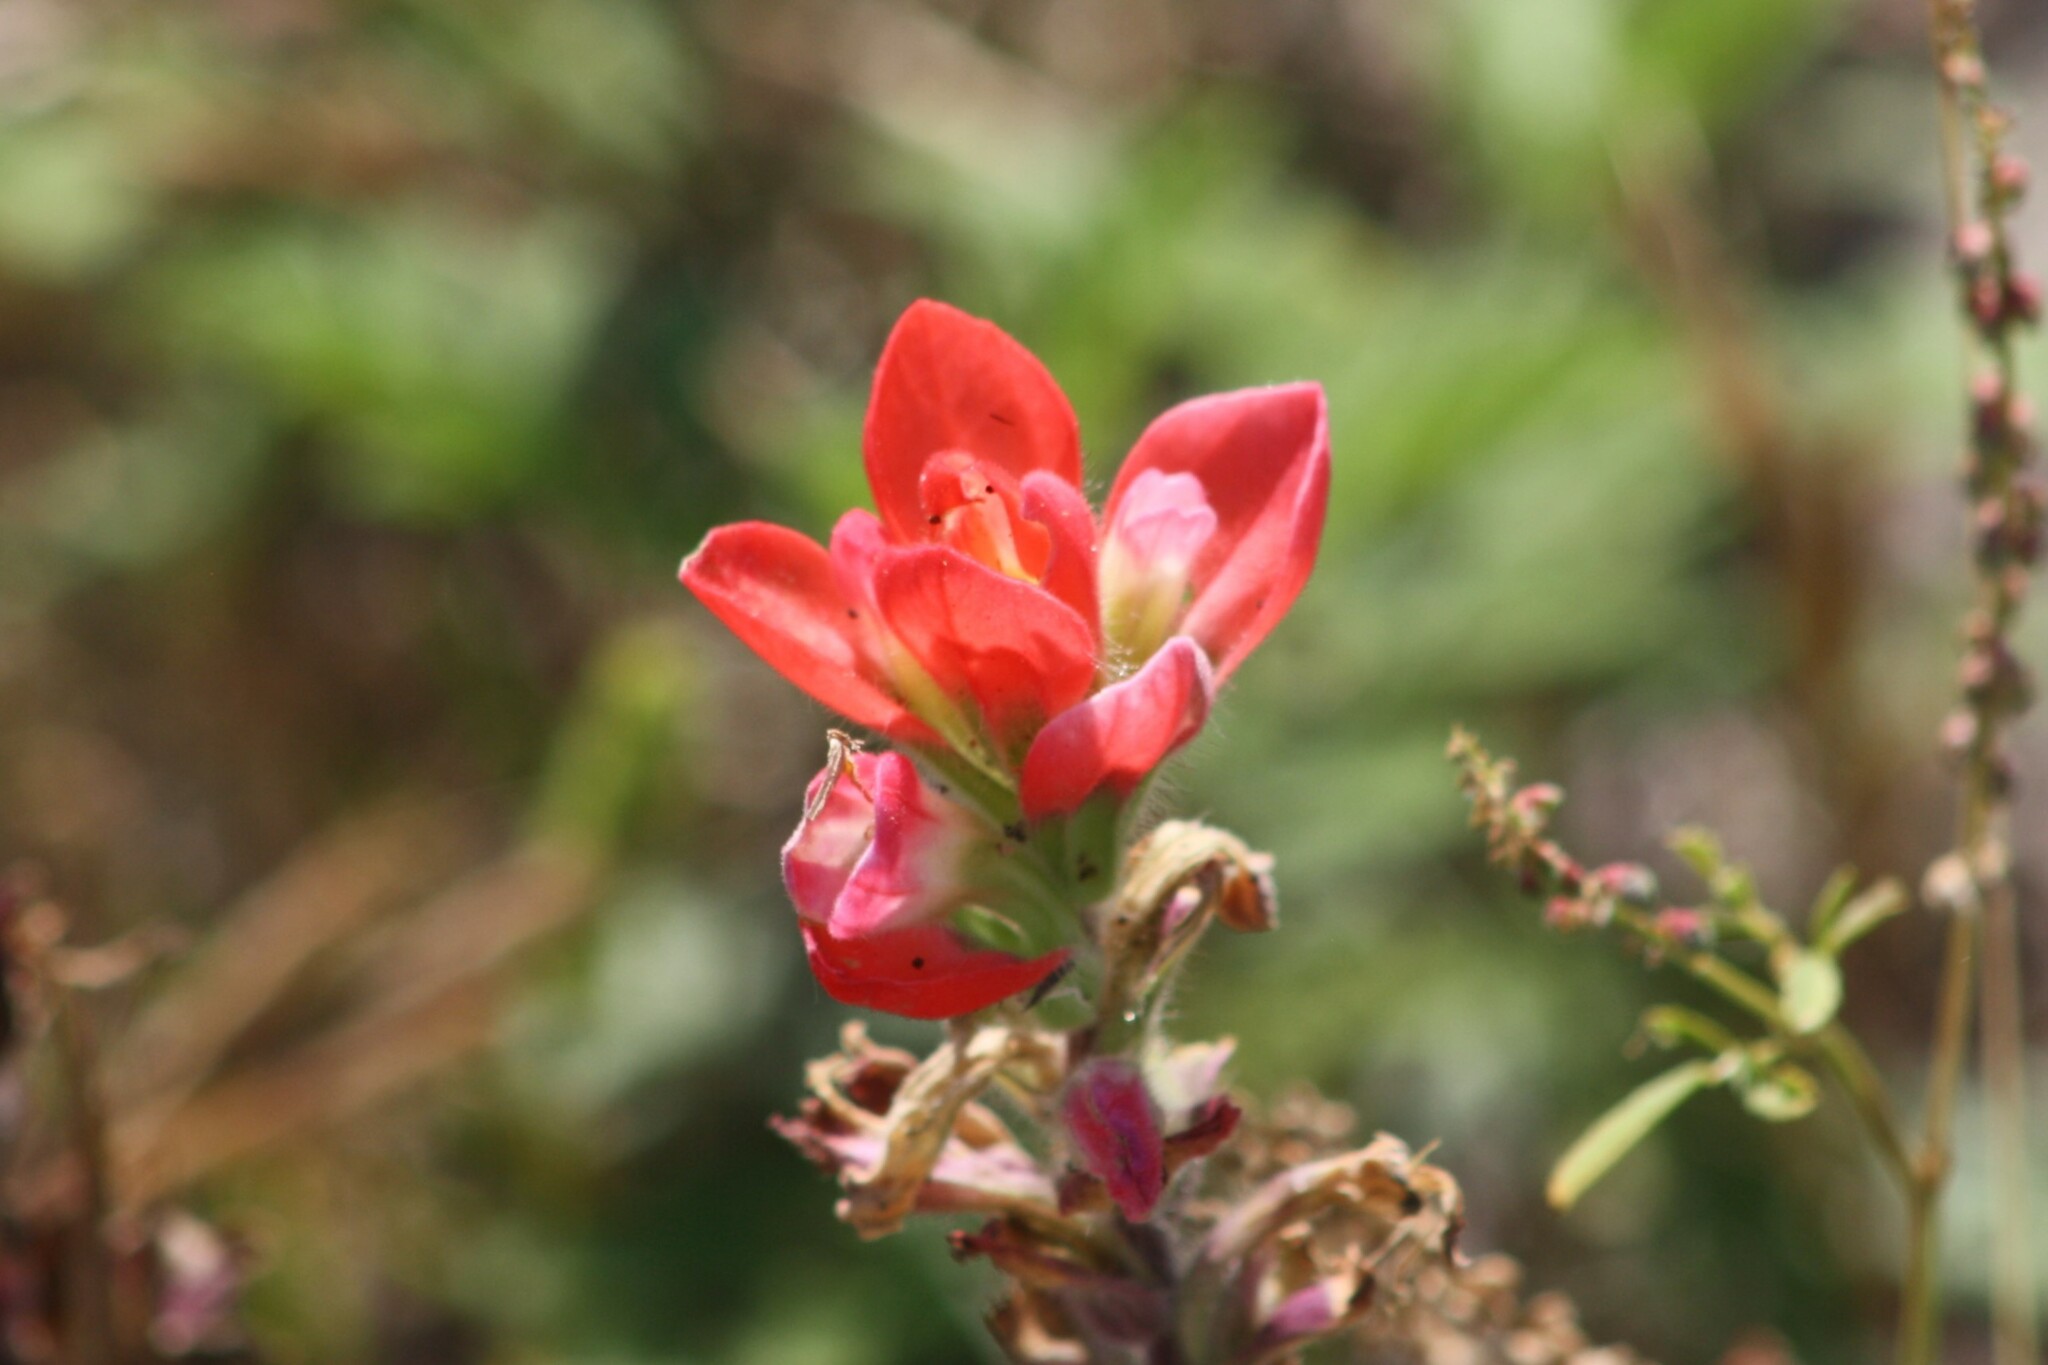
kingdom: Plantae
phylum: Tracheophyta
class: Magnoliopsida
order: Lamiales
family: Orobanchaceae
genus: Castilleja
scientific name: Castilleja indivisa
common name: Texas paintbrush
